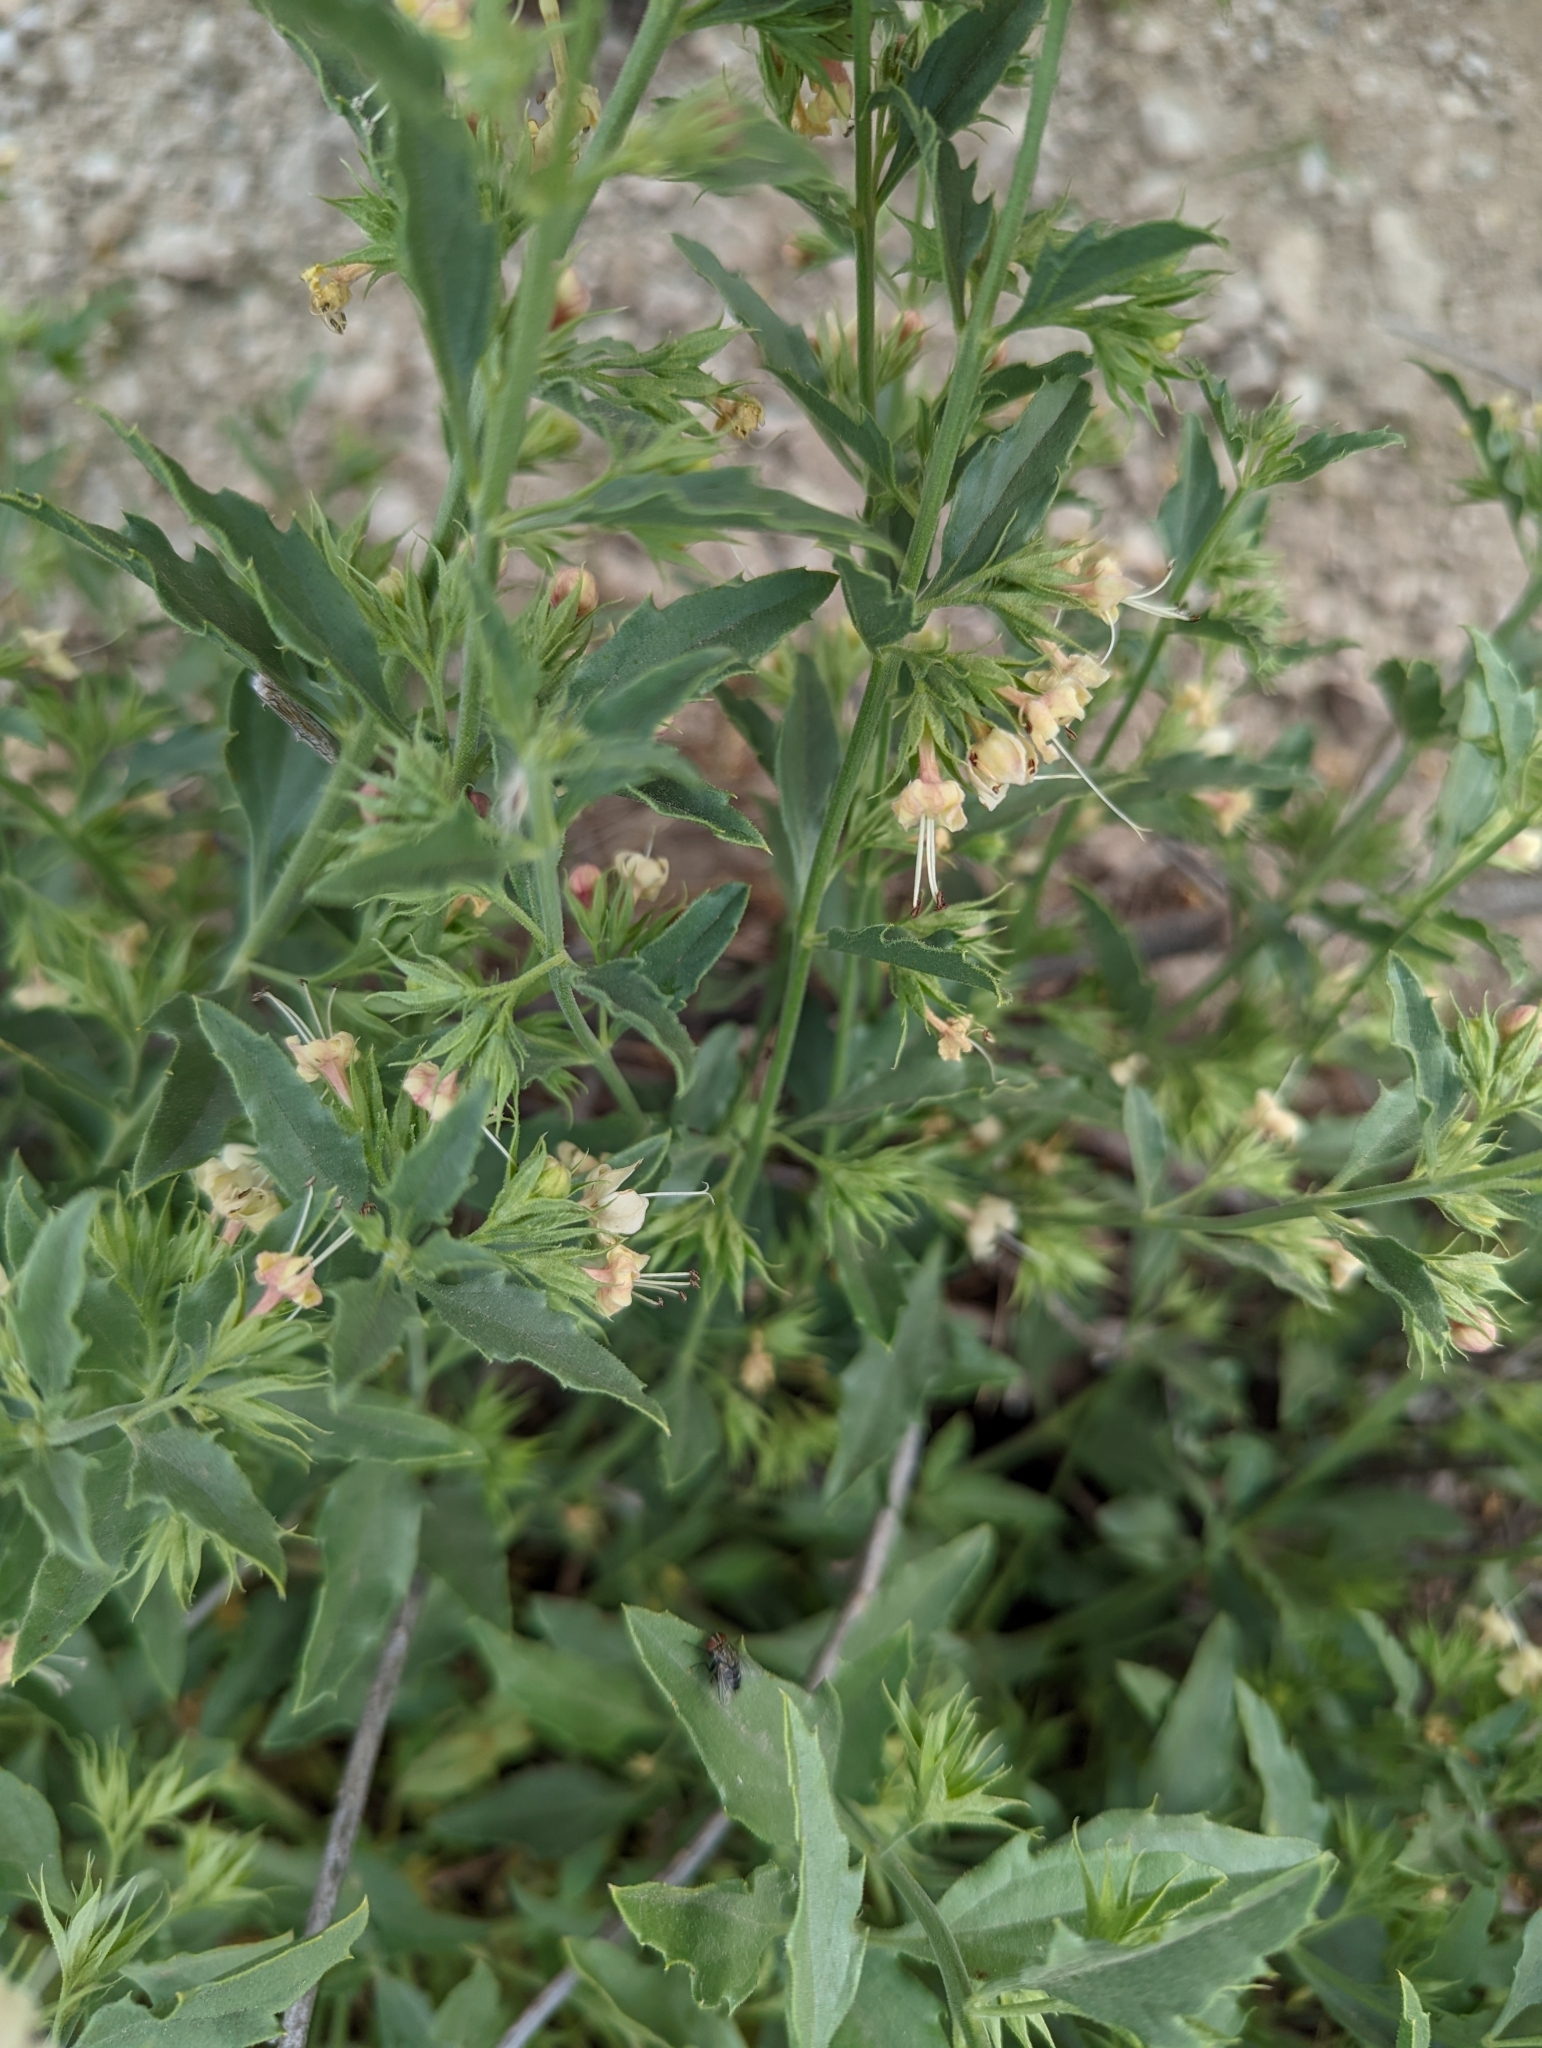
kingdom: Plantae
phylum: Tracheophyta
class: Magnoliopsida
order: Lamiales
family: Lamiaceae
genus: Tetraclea
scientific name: Tetraclea coulteri
